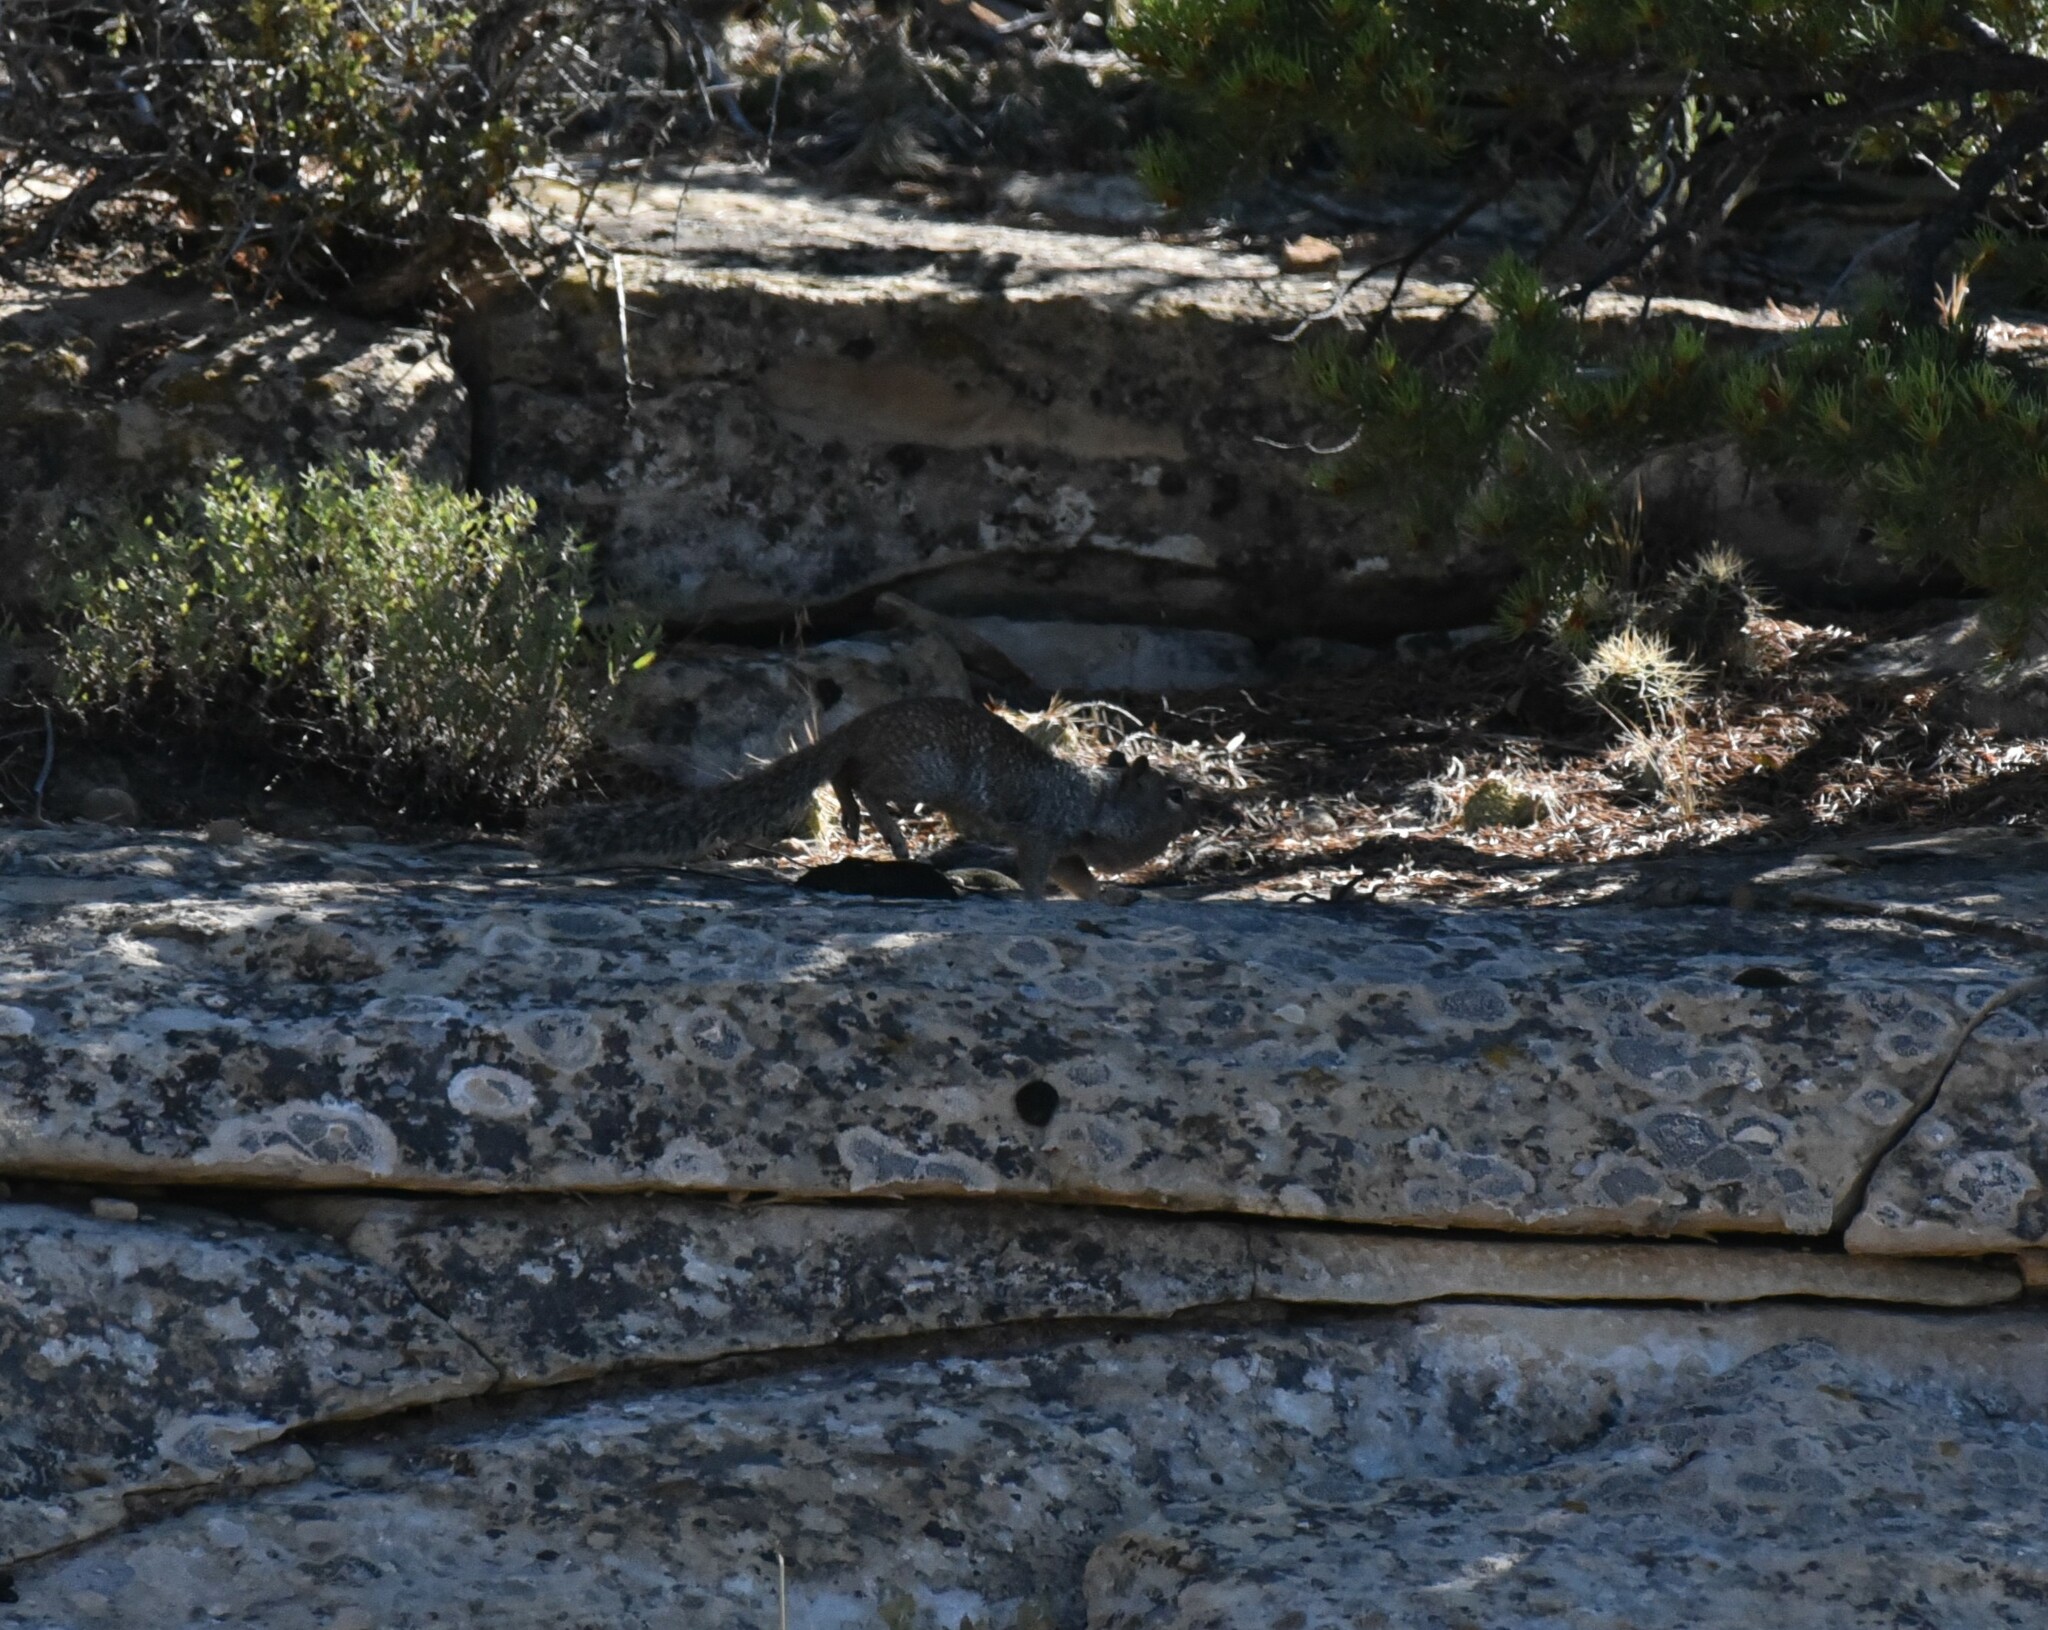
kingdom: Animalia
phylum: Chordata
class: Mammalia
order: Rodentia
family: Sciuridae
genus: Otospermophilus
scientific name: Otospermophilus variegatus
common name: Rock squirrel
